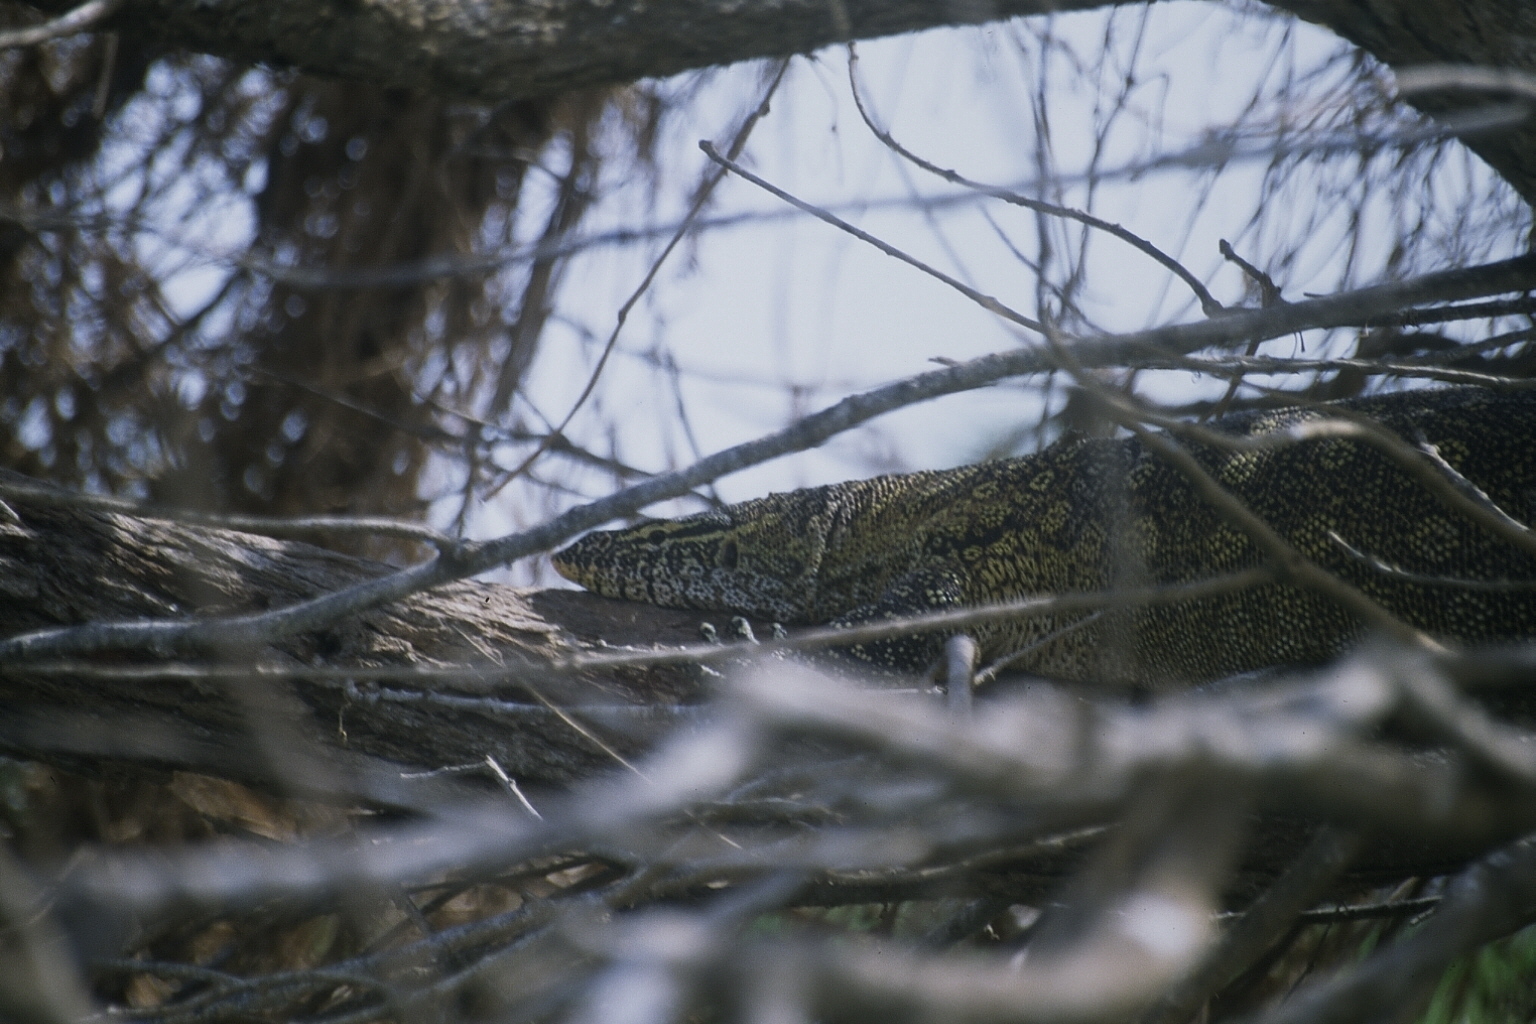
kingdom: Animalia
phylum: Chordata
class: Squamata
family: Varanidae
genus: Varanus
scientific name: Varanus niloticus
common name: Nile monitor
